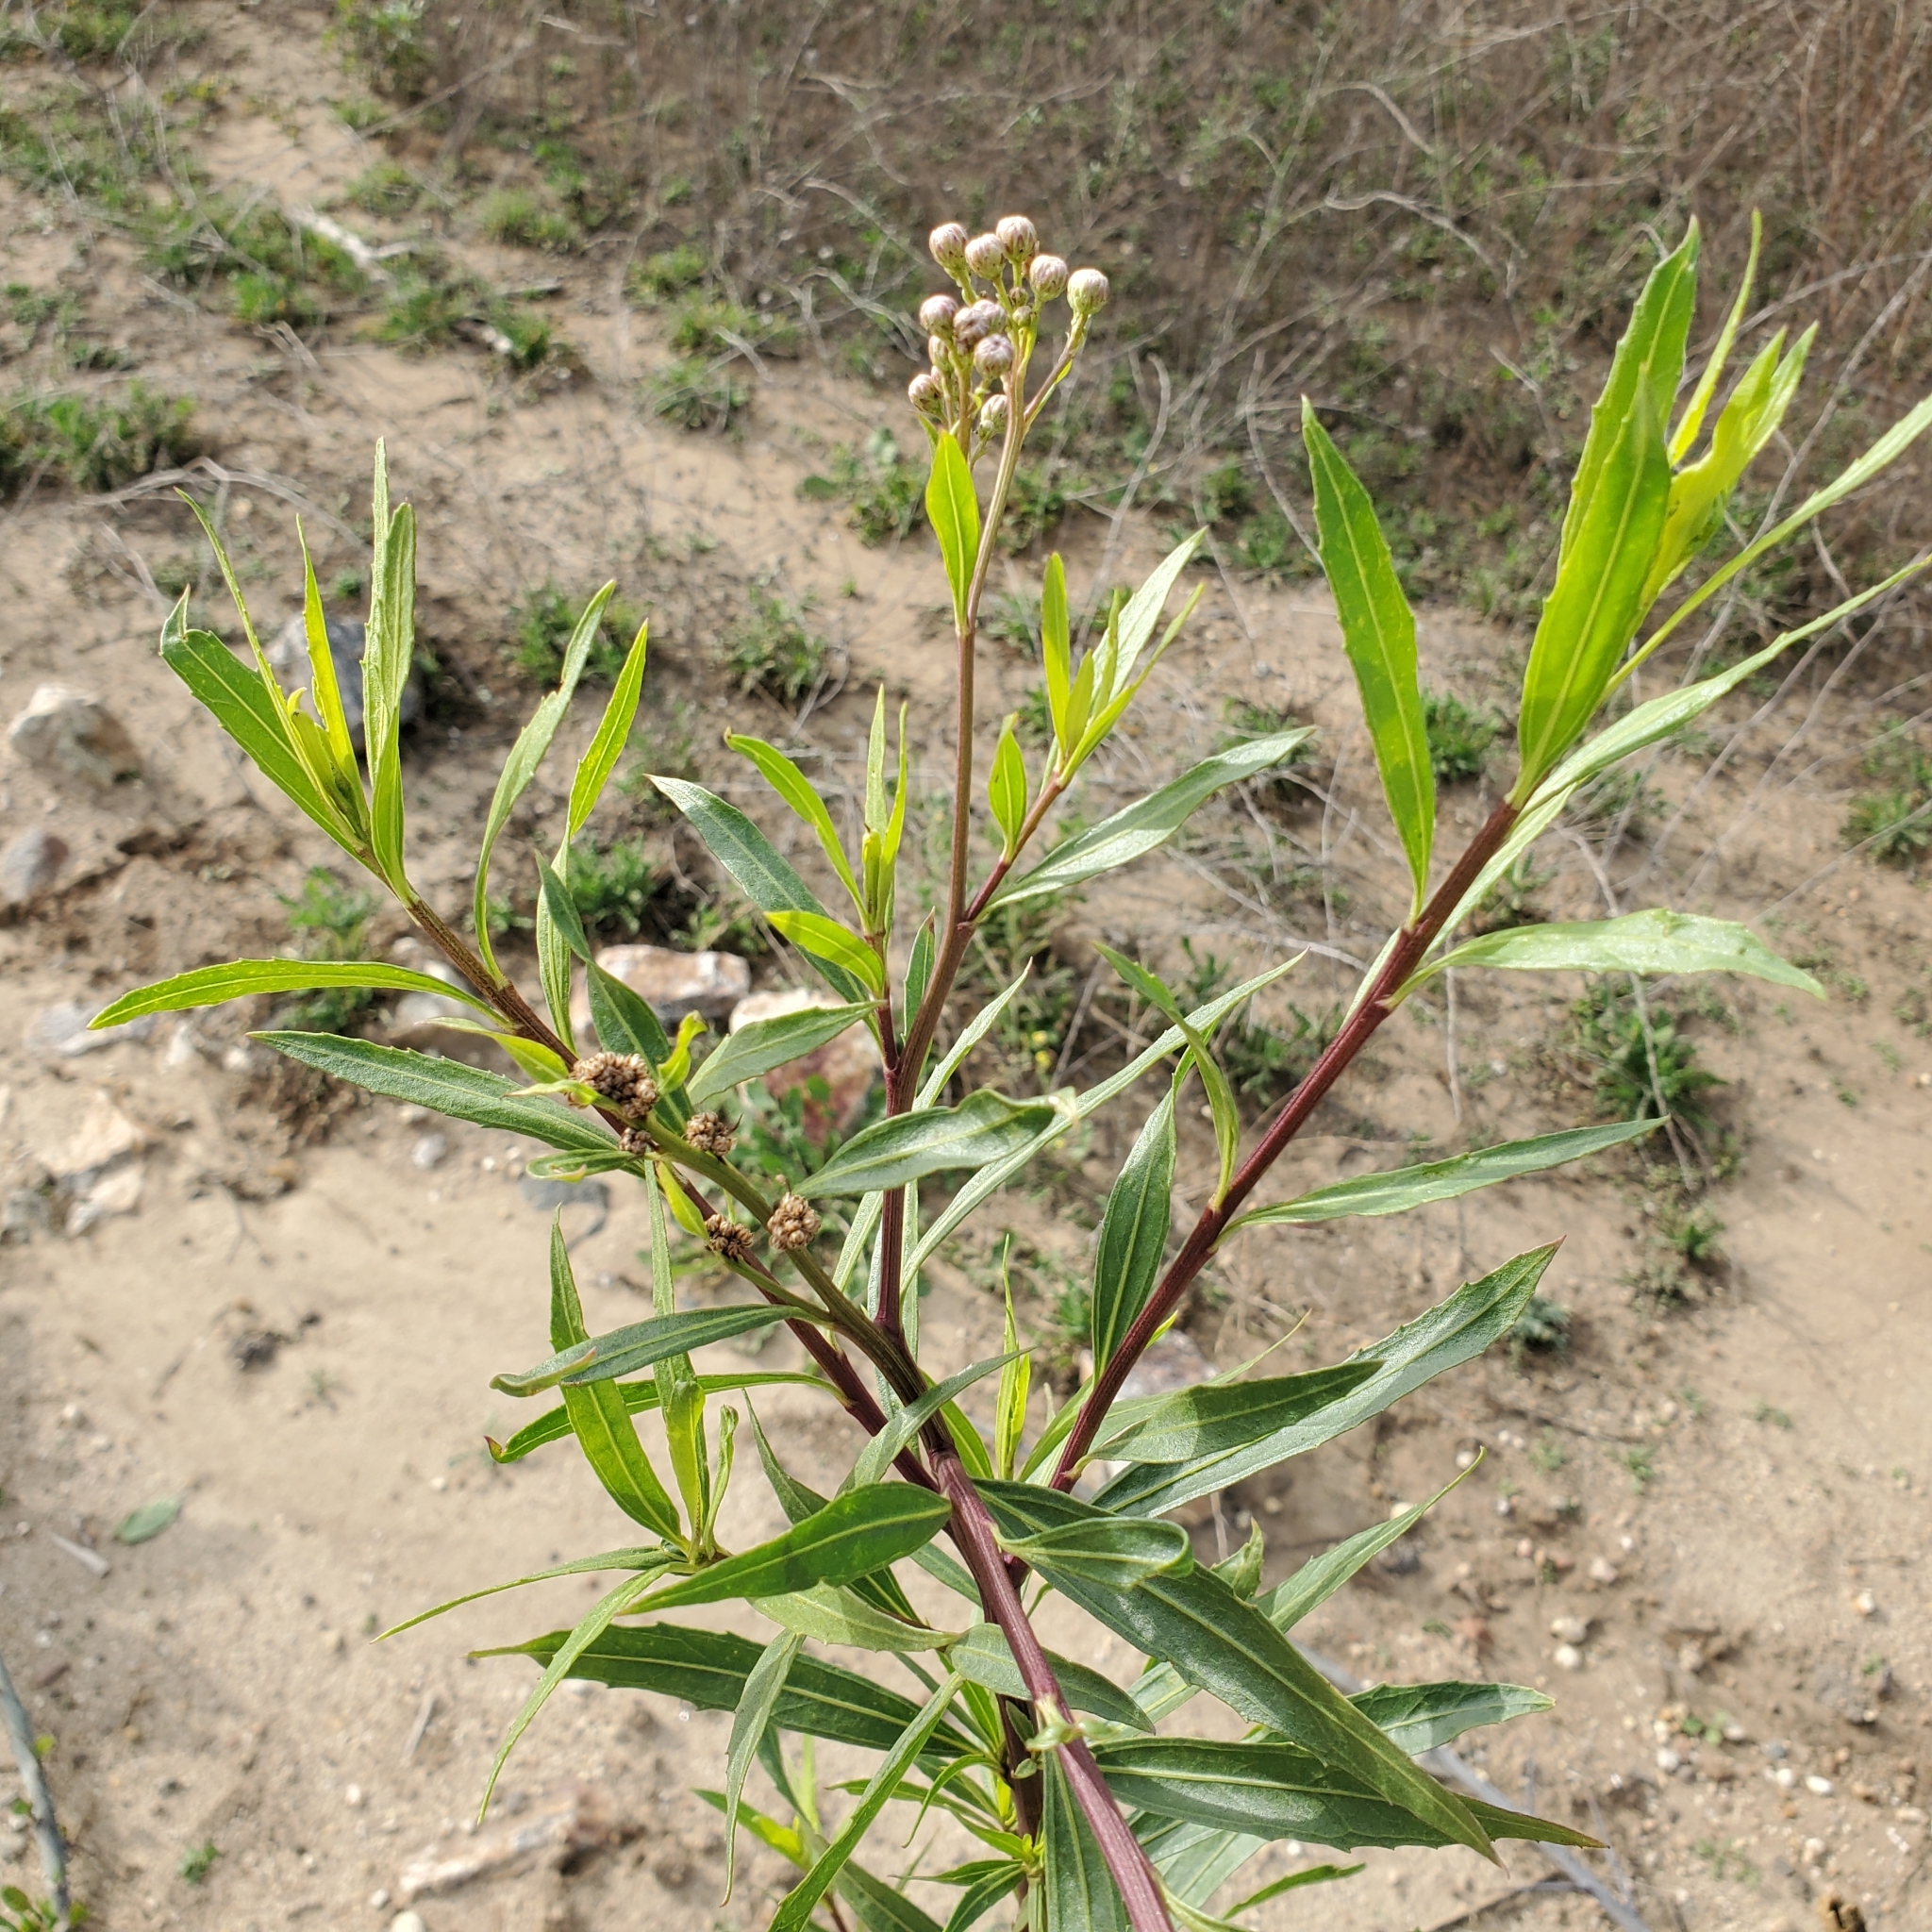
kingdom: Plantae
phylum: Tracheophyta
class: Magnoliopsida
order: Asterales
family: Asteraceae
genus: Baccharis
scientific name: Baccharis salicifolia
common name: Sticky baccharis
